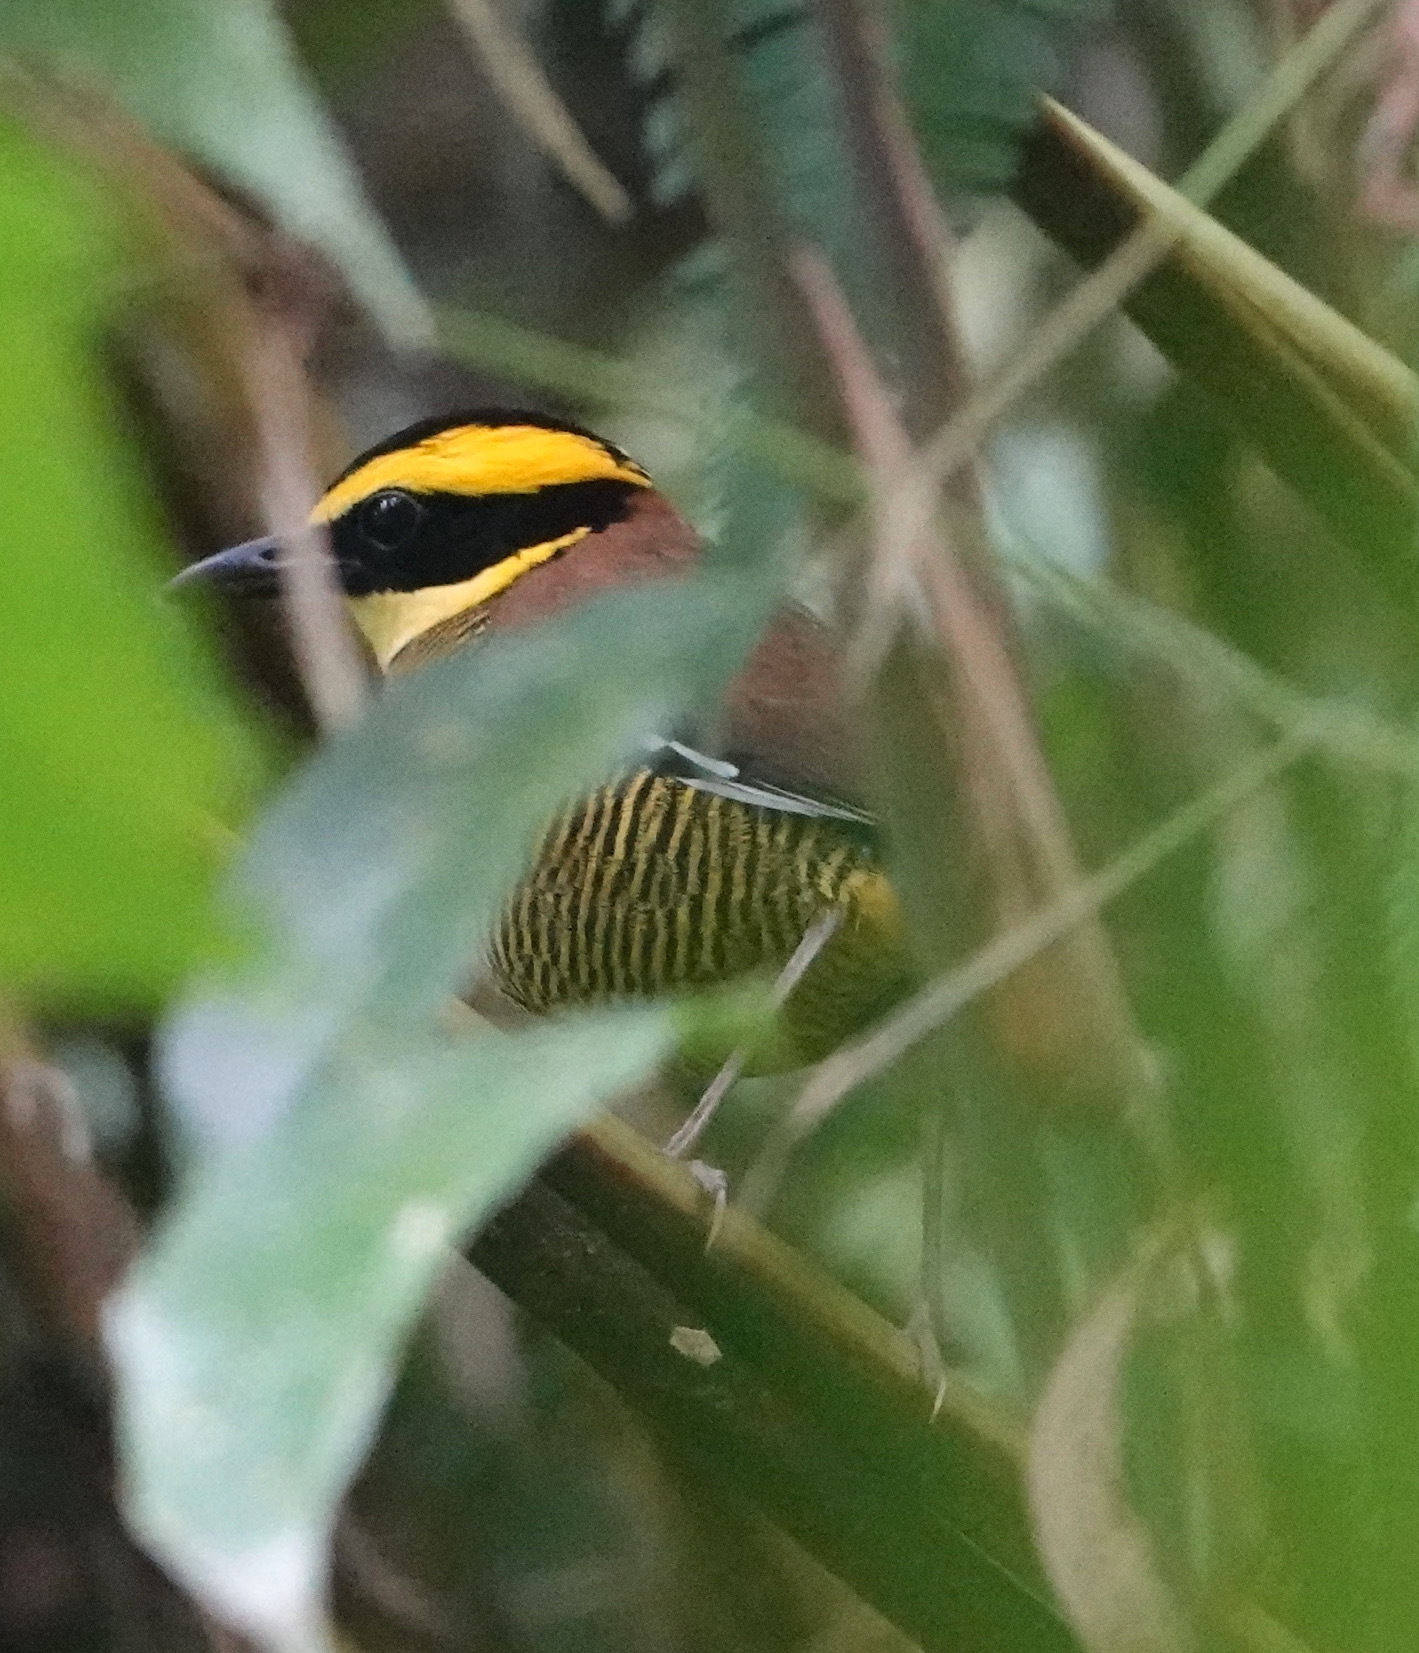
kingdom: Animalia
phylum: Chordata
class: Aves
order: Passeriformes
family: Pittidae
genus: Pitta
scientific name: Pitta guajana
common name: Banded pitta
